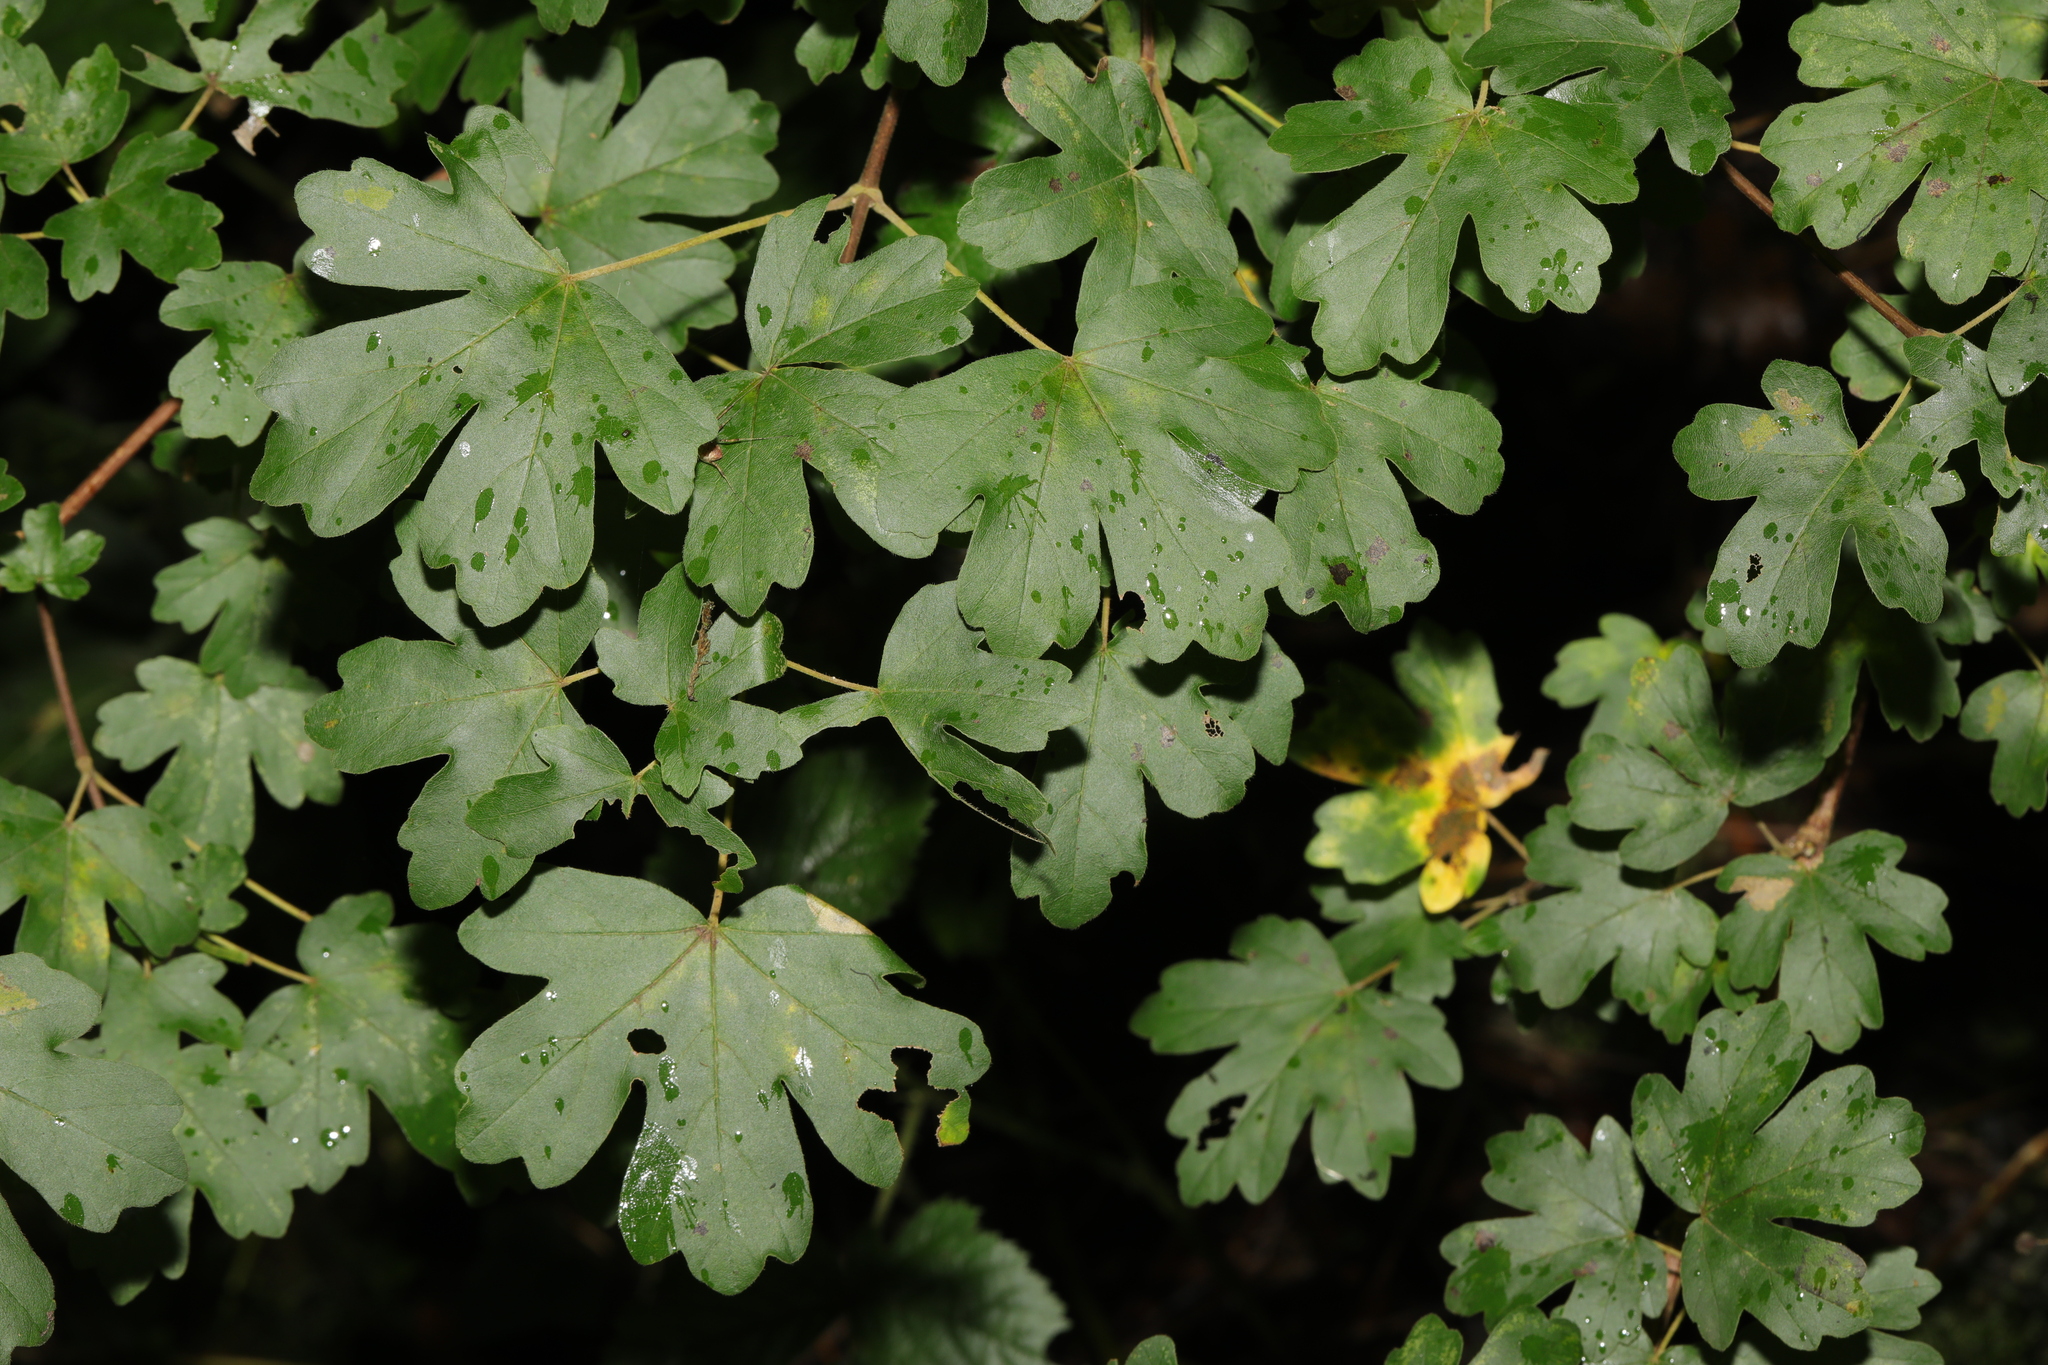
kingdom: Plantae
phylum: Tracheophyta
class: Magnoliopsida
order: Sapindales
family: Sapindaceae
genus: Acer
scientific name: Acer campestre
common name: Field maple
